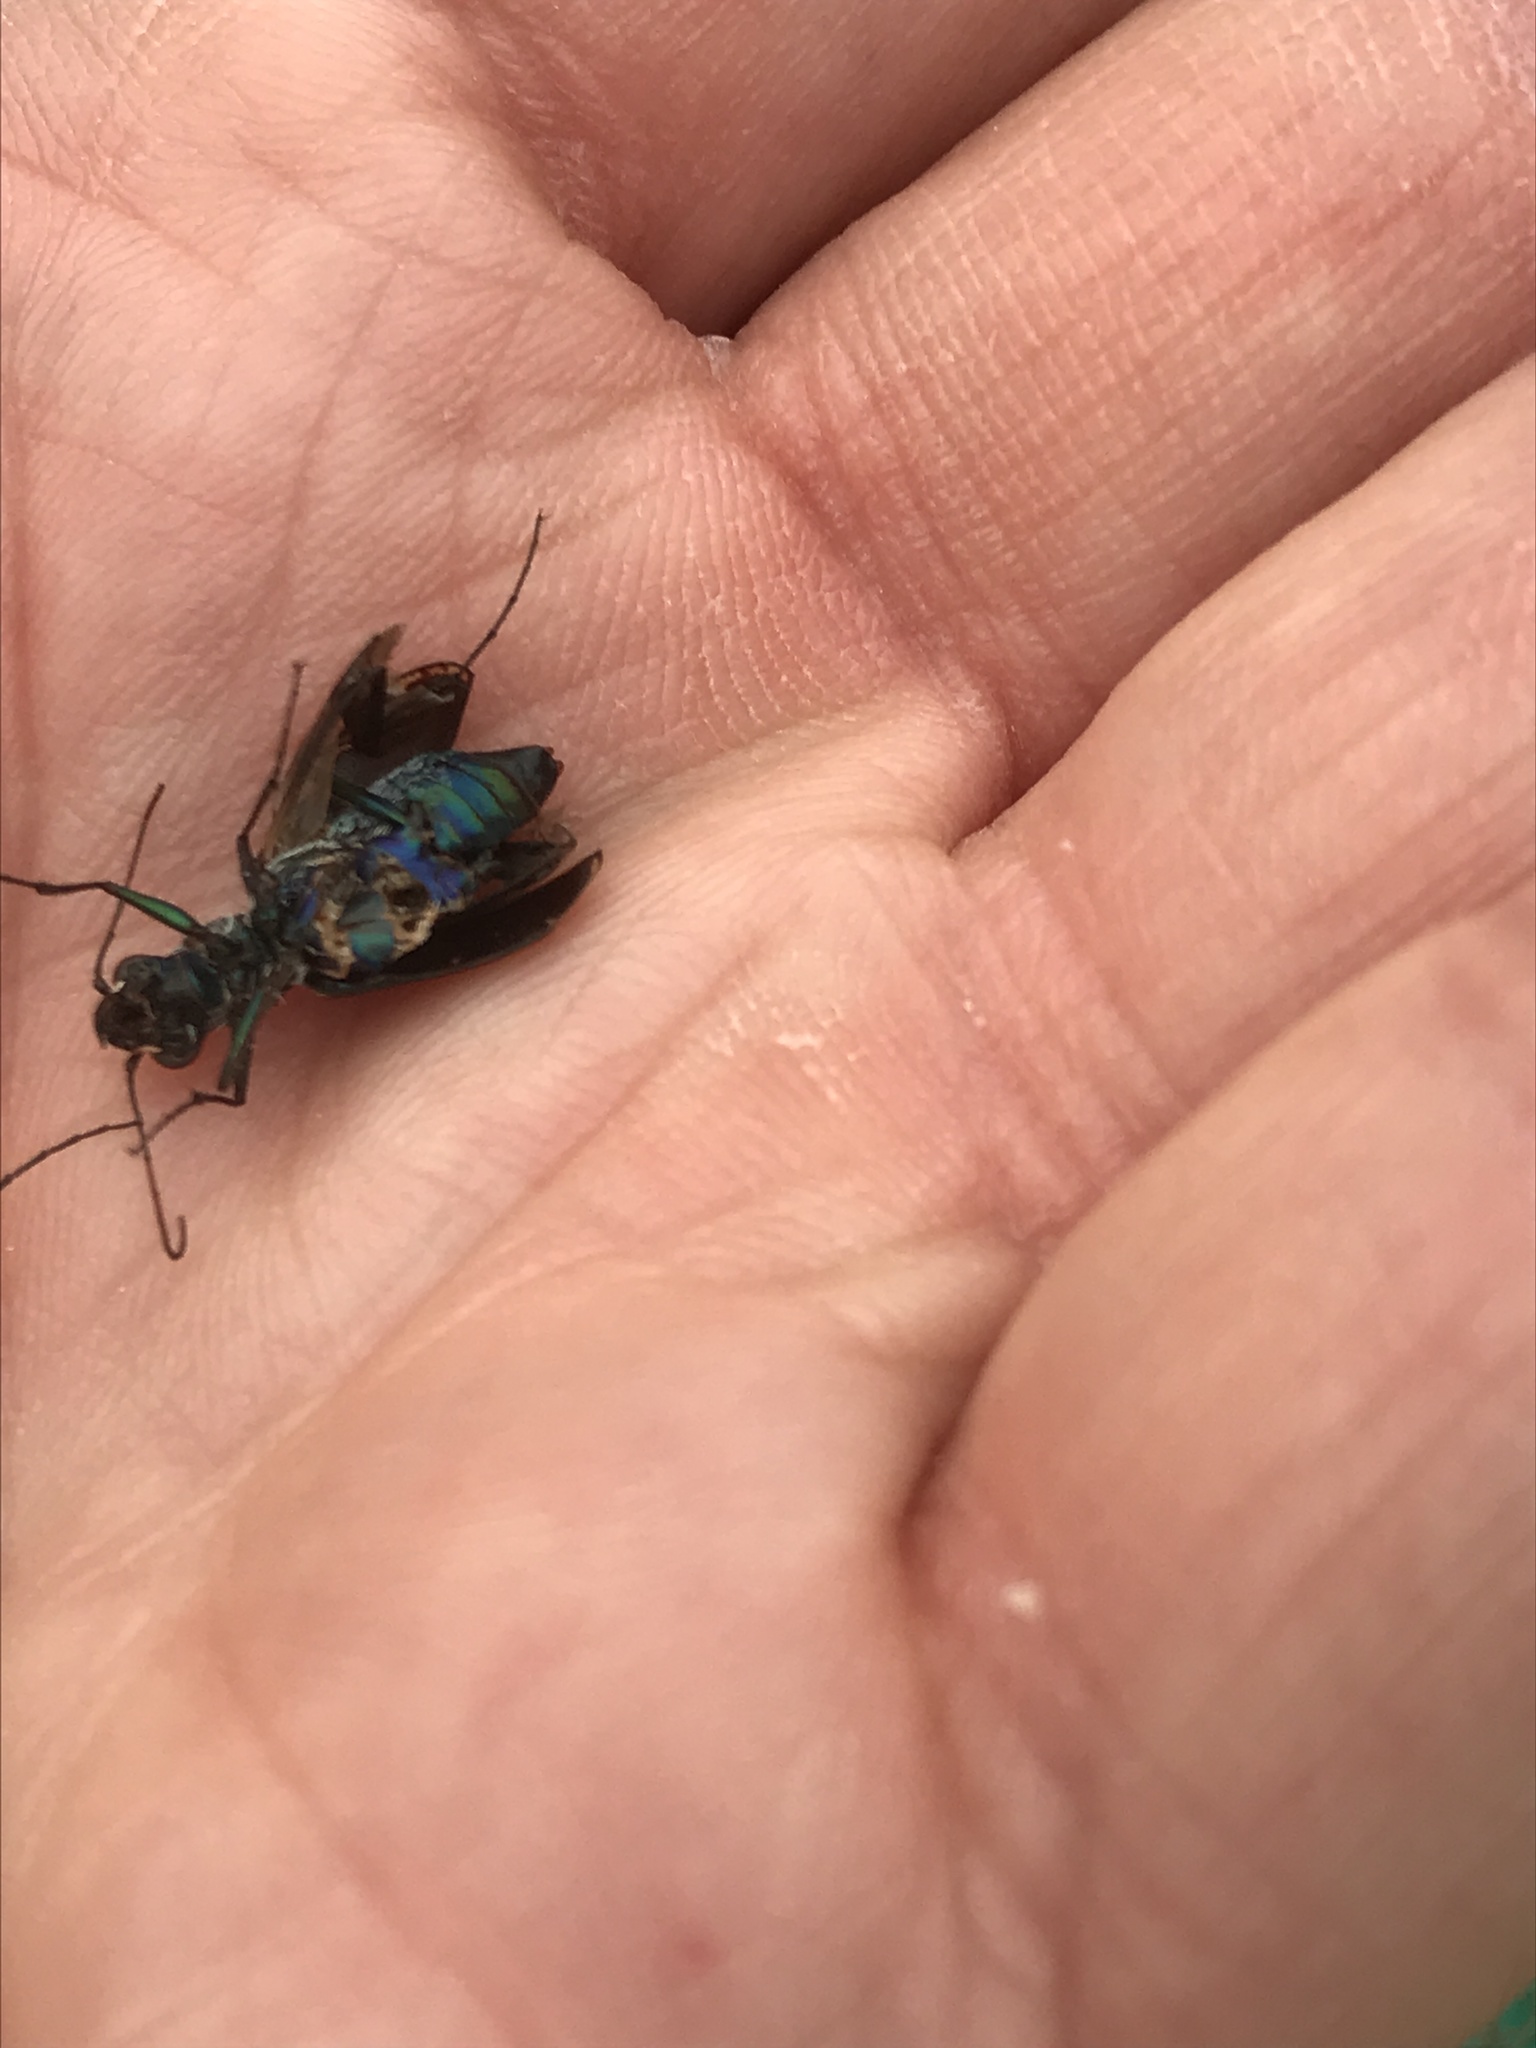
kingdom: Animalia
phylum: Arthropoda
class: Insecta
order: Coleoptera
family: Carabidae
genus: Cicindela
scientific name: Cicindela punctulata
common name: Punctured tiger beetle
